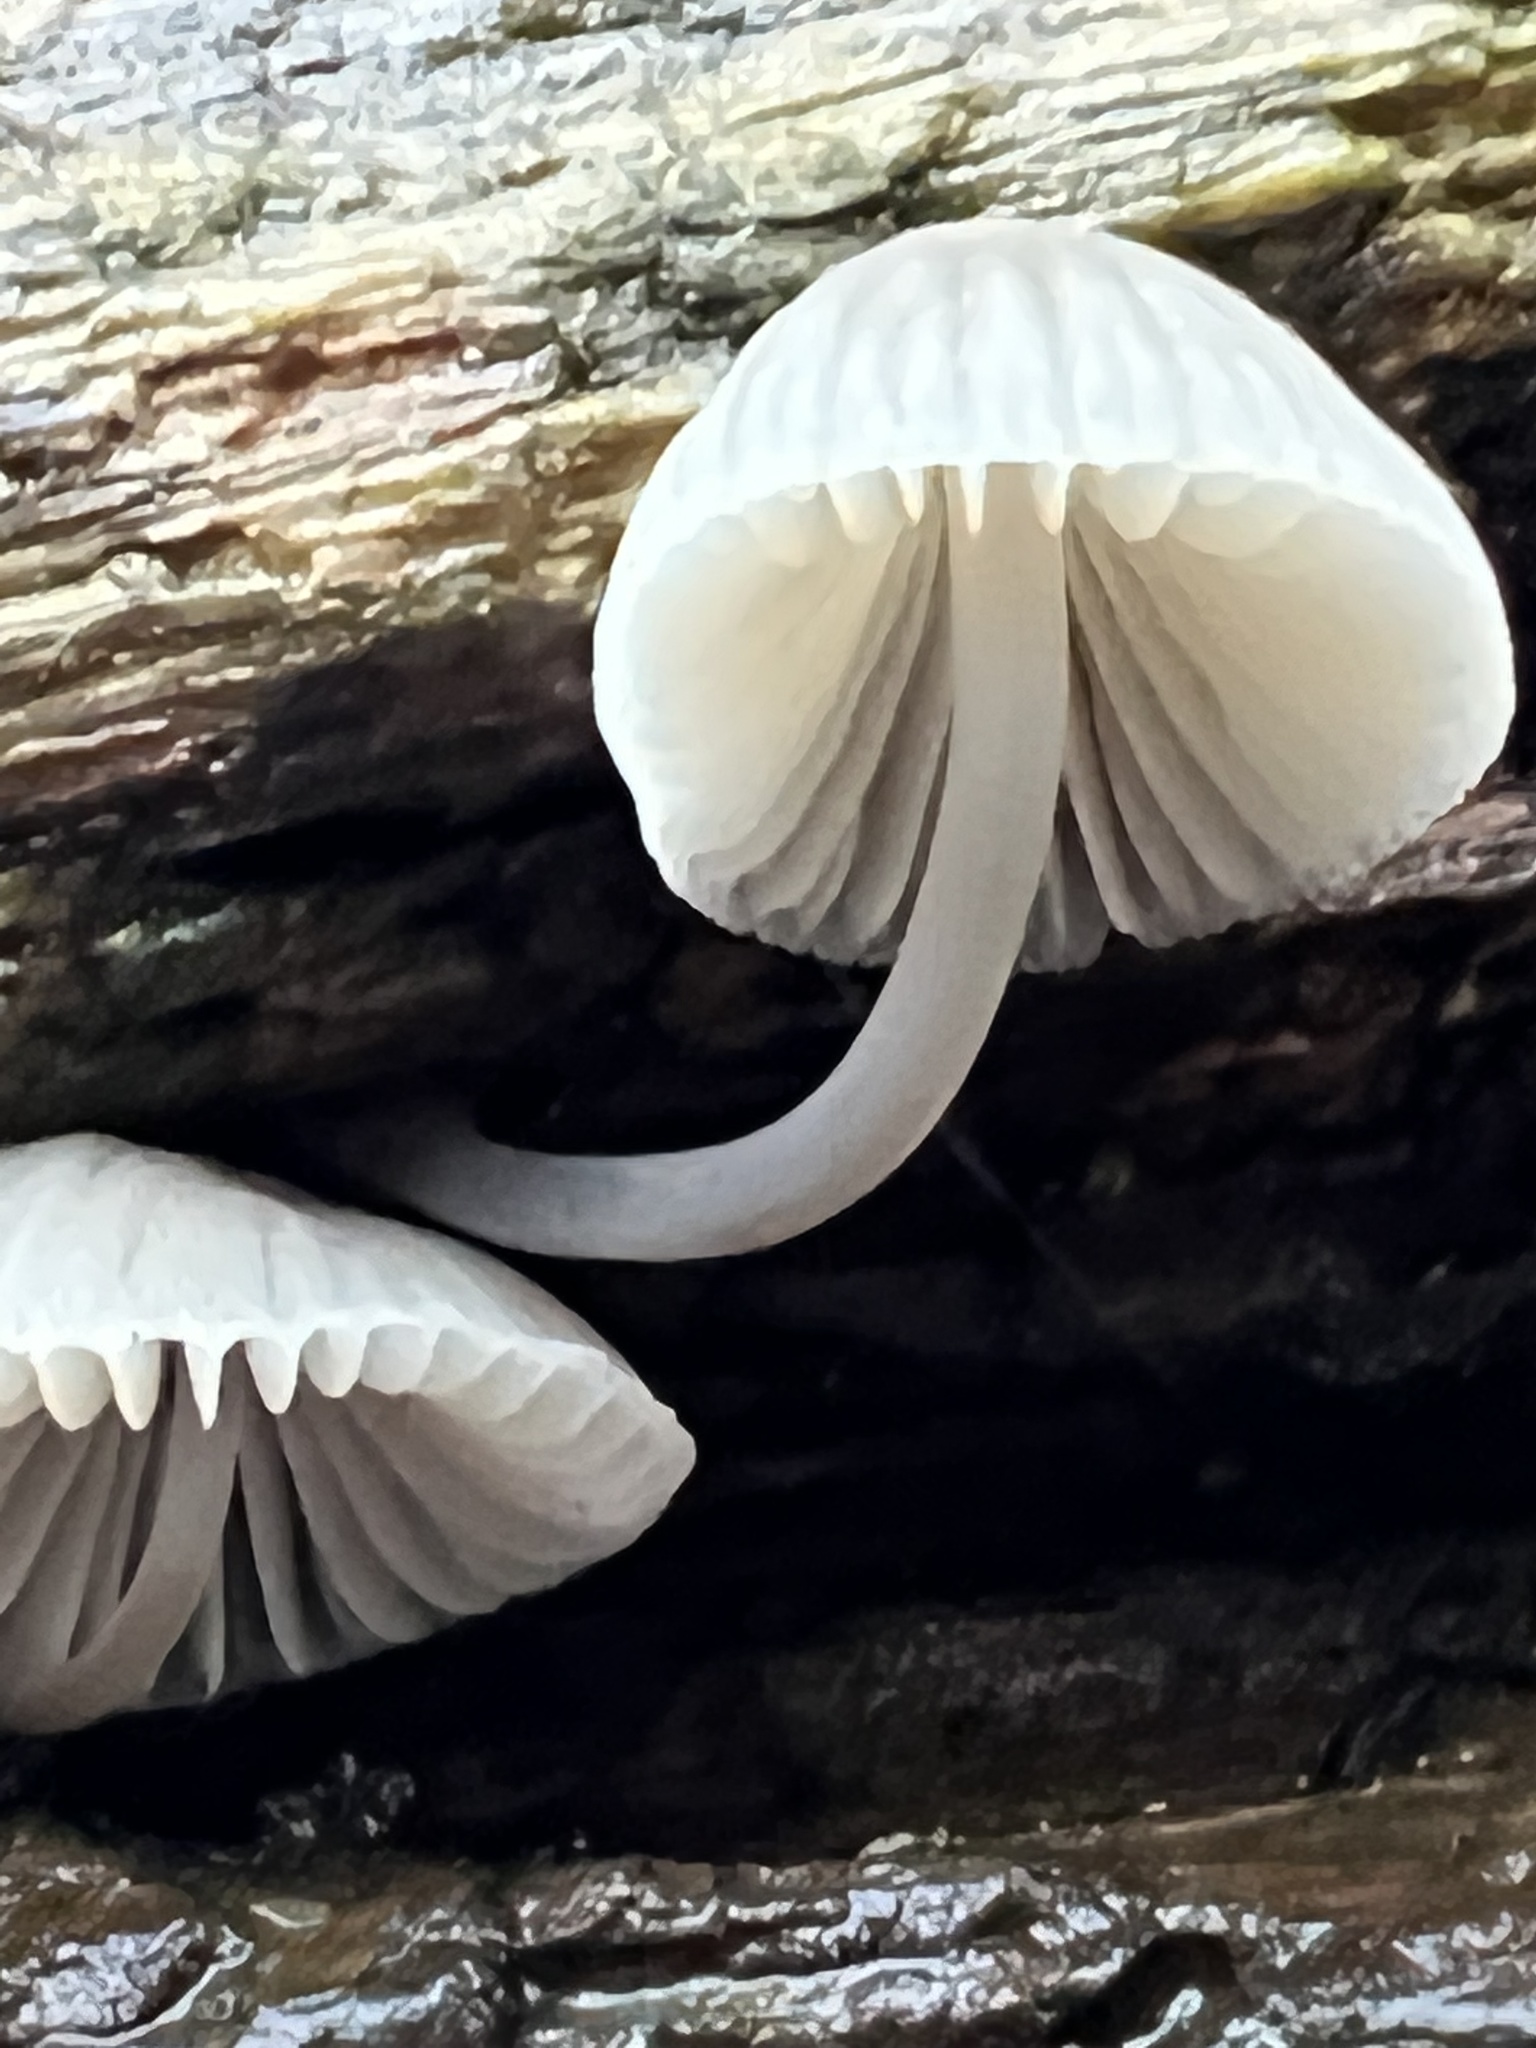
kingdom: Fungi
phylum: Basidiomycota
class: Agaricomycetes
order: Agaricales
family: Mycenaceae
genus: Mycena
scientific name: Mycena galericulata
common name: Bonnet mycena
